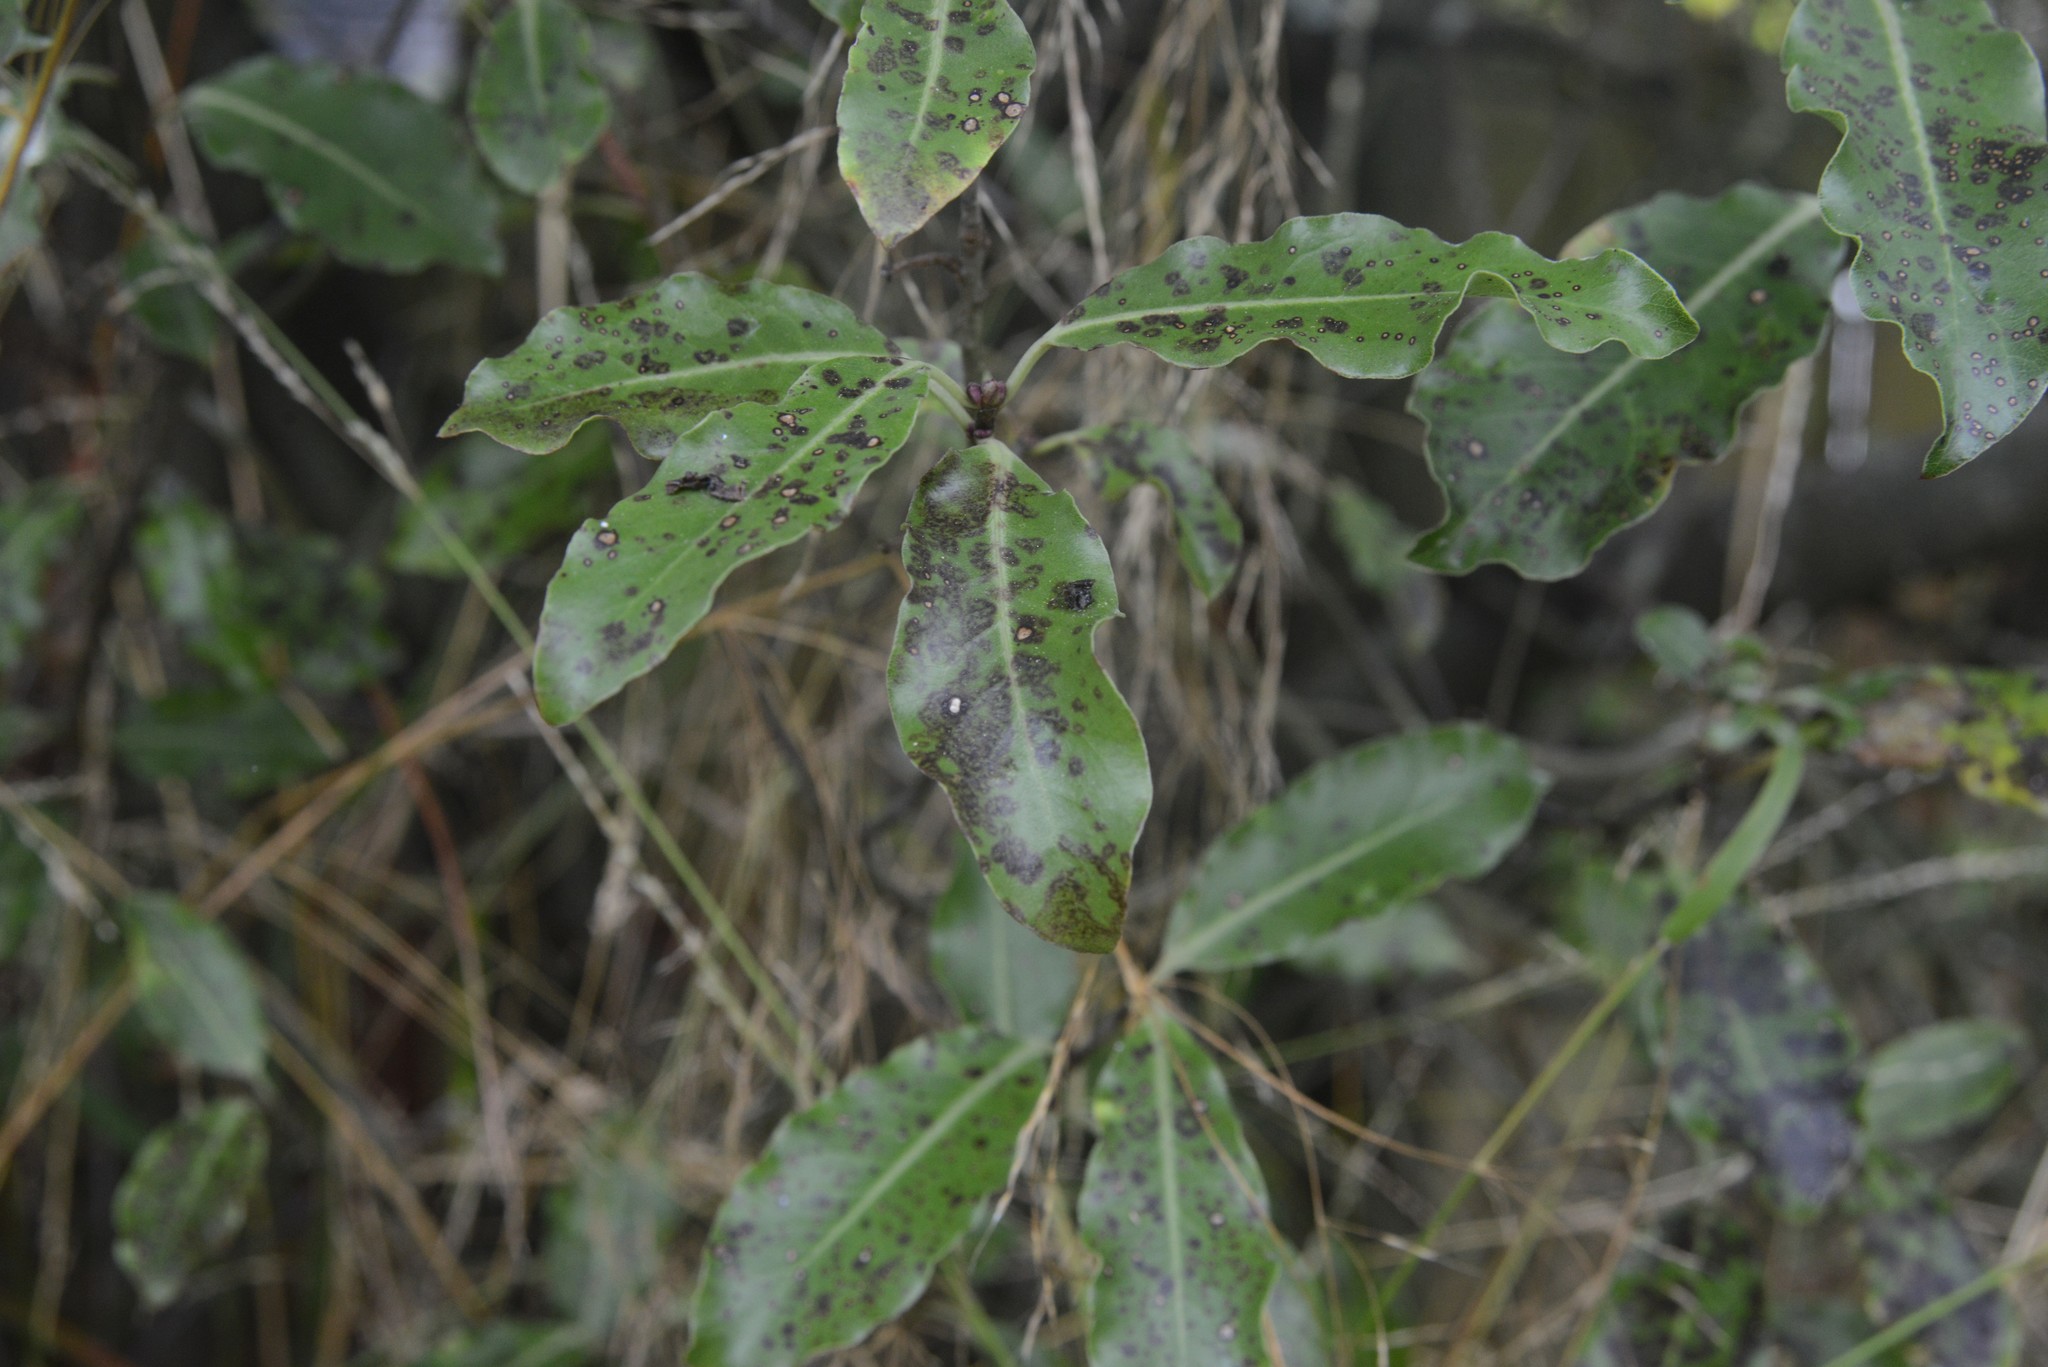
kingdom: Plantae
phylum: Tracheophyta
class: Magnoliopsida
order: Apiales
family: Pittosporaceae
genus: Pittosporum
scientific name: Pittosporum tenuifolium
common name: Kohuhu
